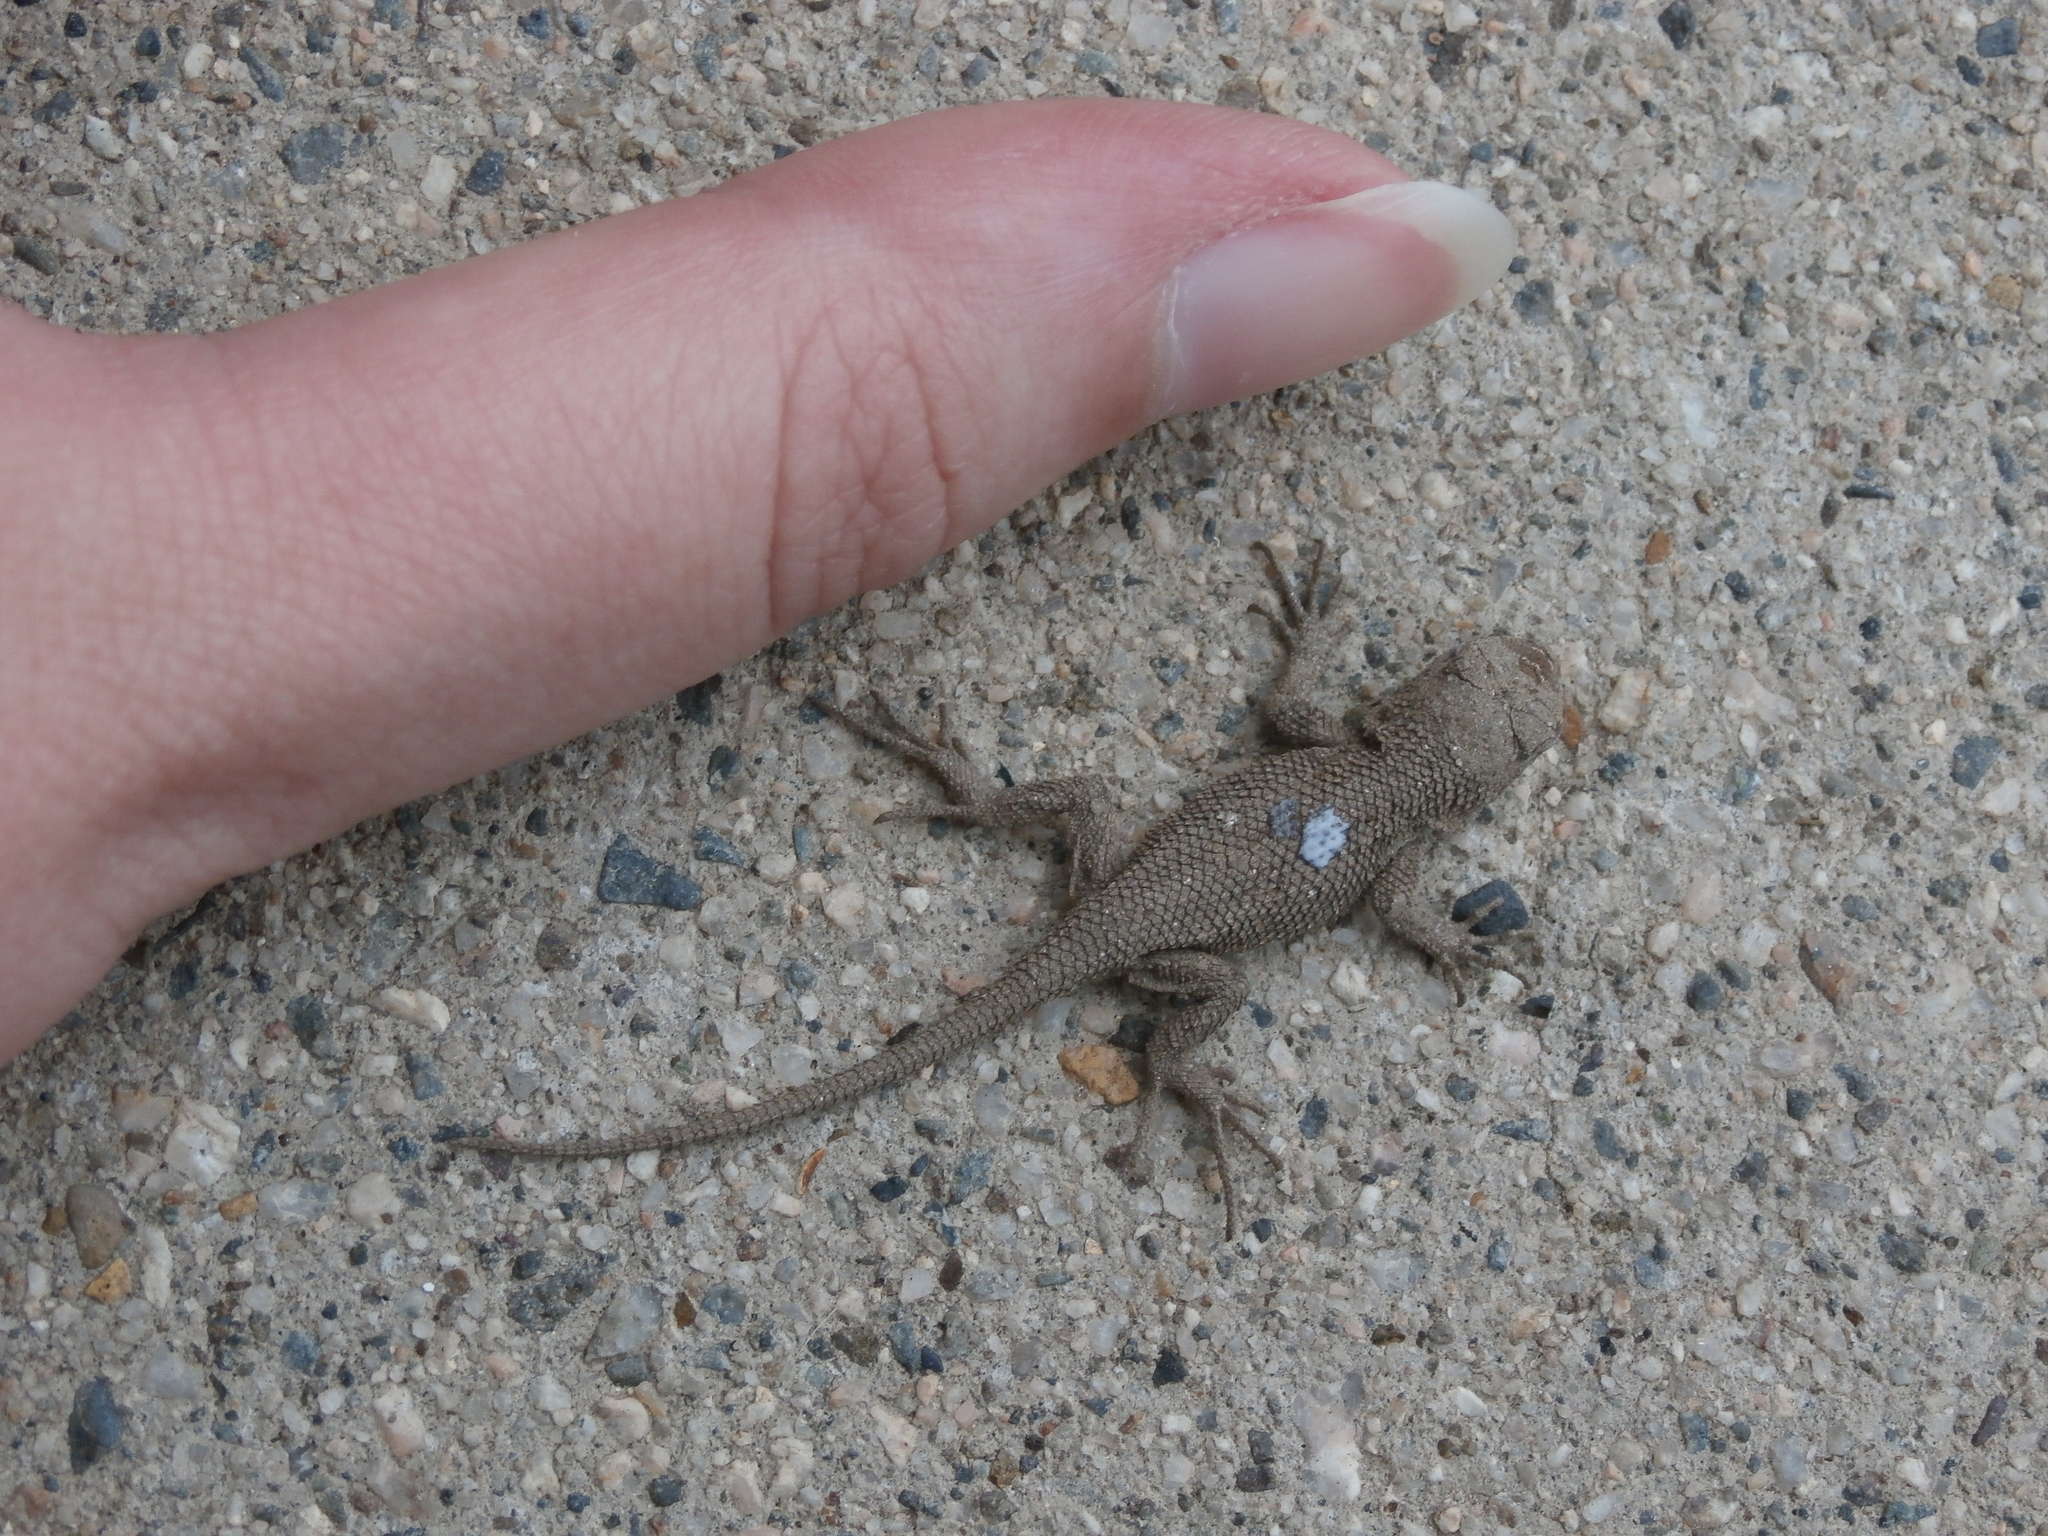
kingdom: Animalia
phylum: Chordata
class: Squamata
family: Phrynosomatidae
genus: Sceloporus
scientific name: Sceloporus occidentalis
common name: Western fence lizard
